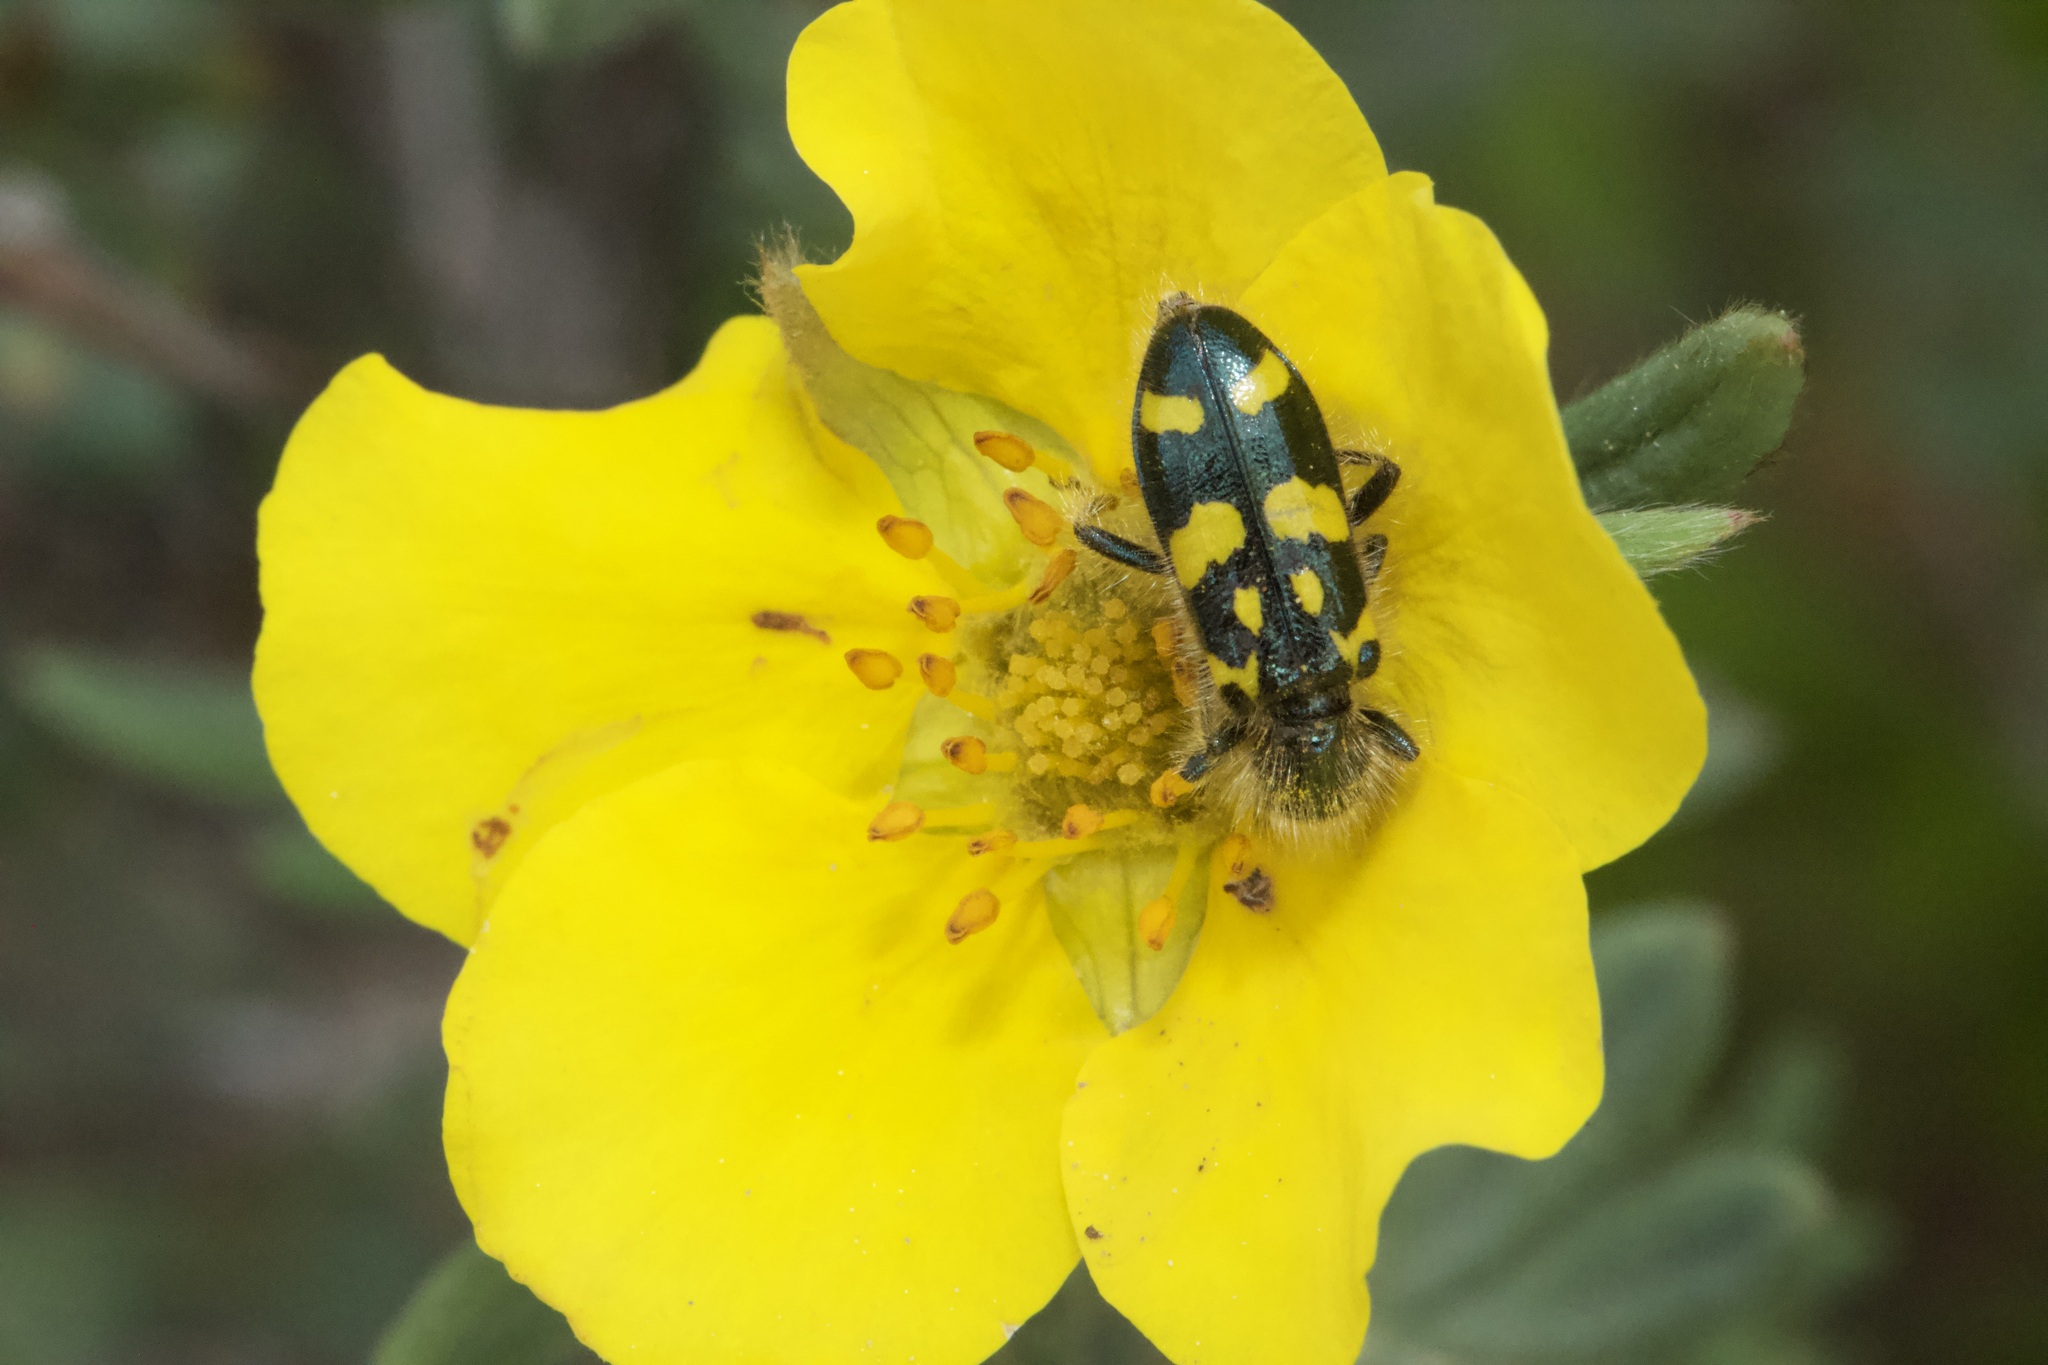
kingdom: Animalia
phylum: Arthropoda
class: Insecta
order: Coleoptera
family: Cleridae
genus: Trichodes
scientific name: Trichodes ornatus
